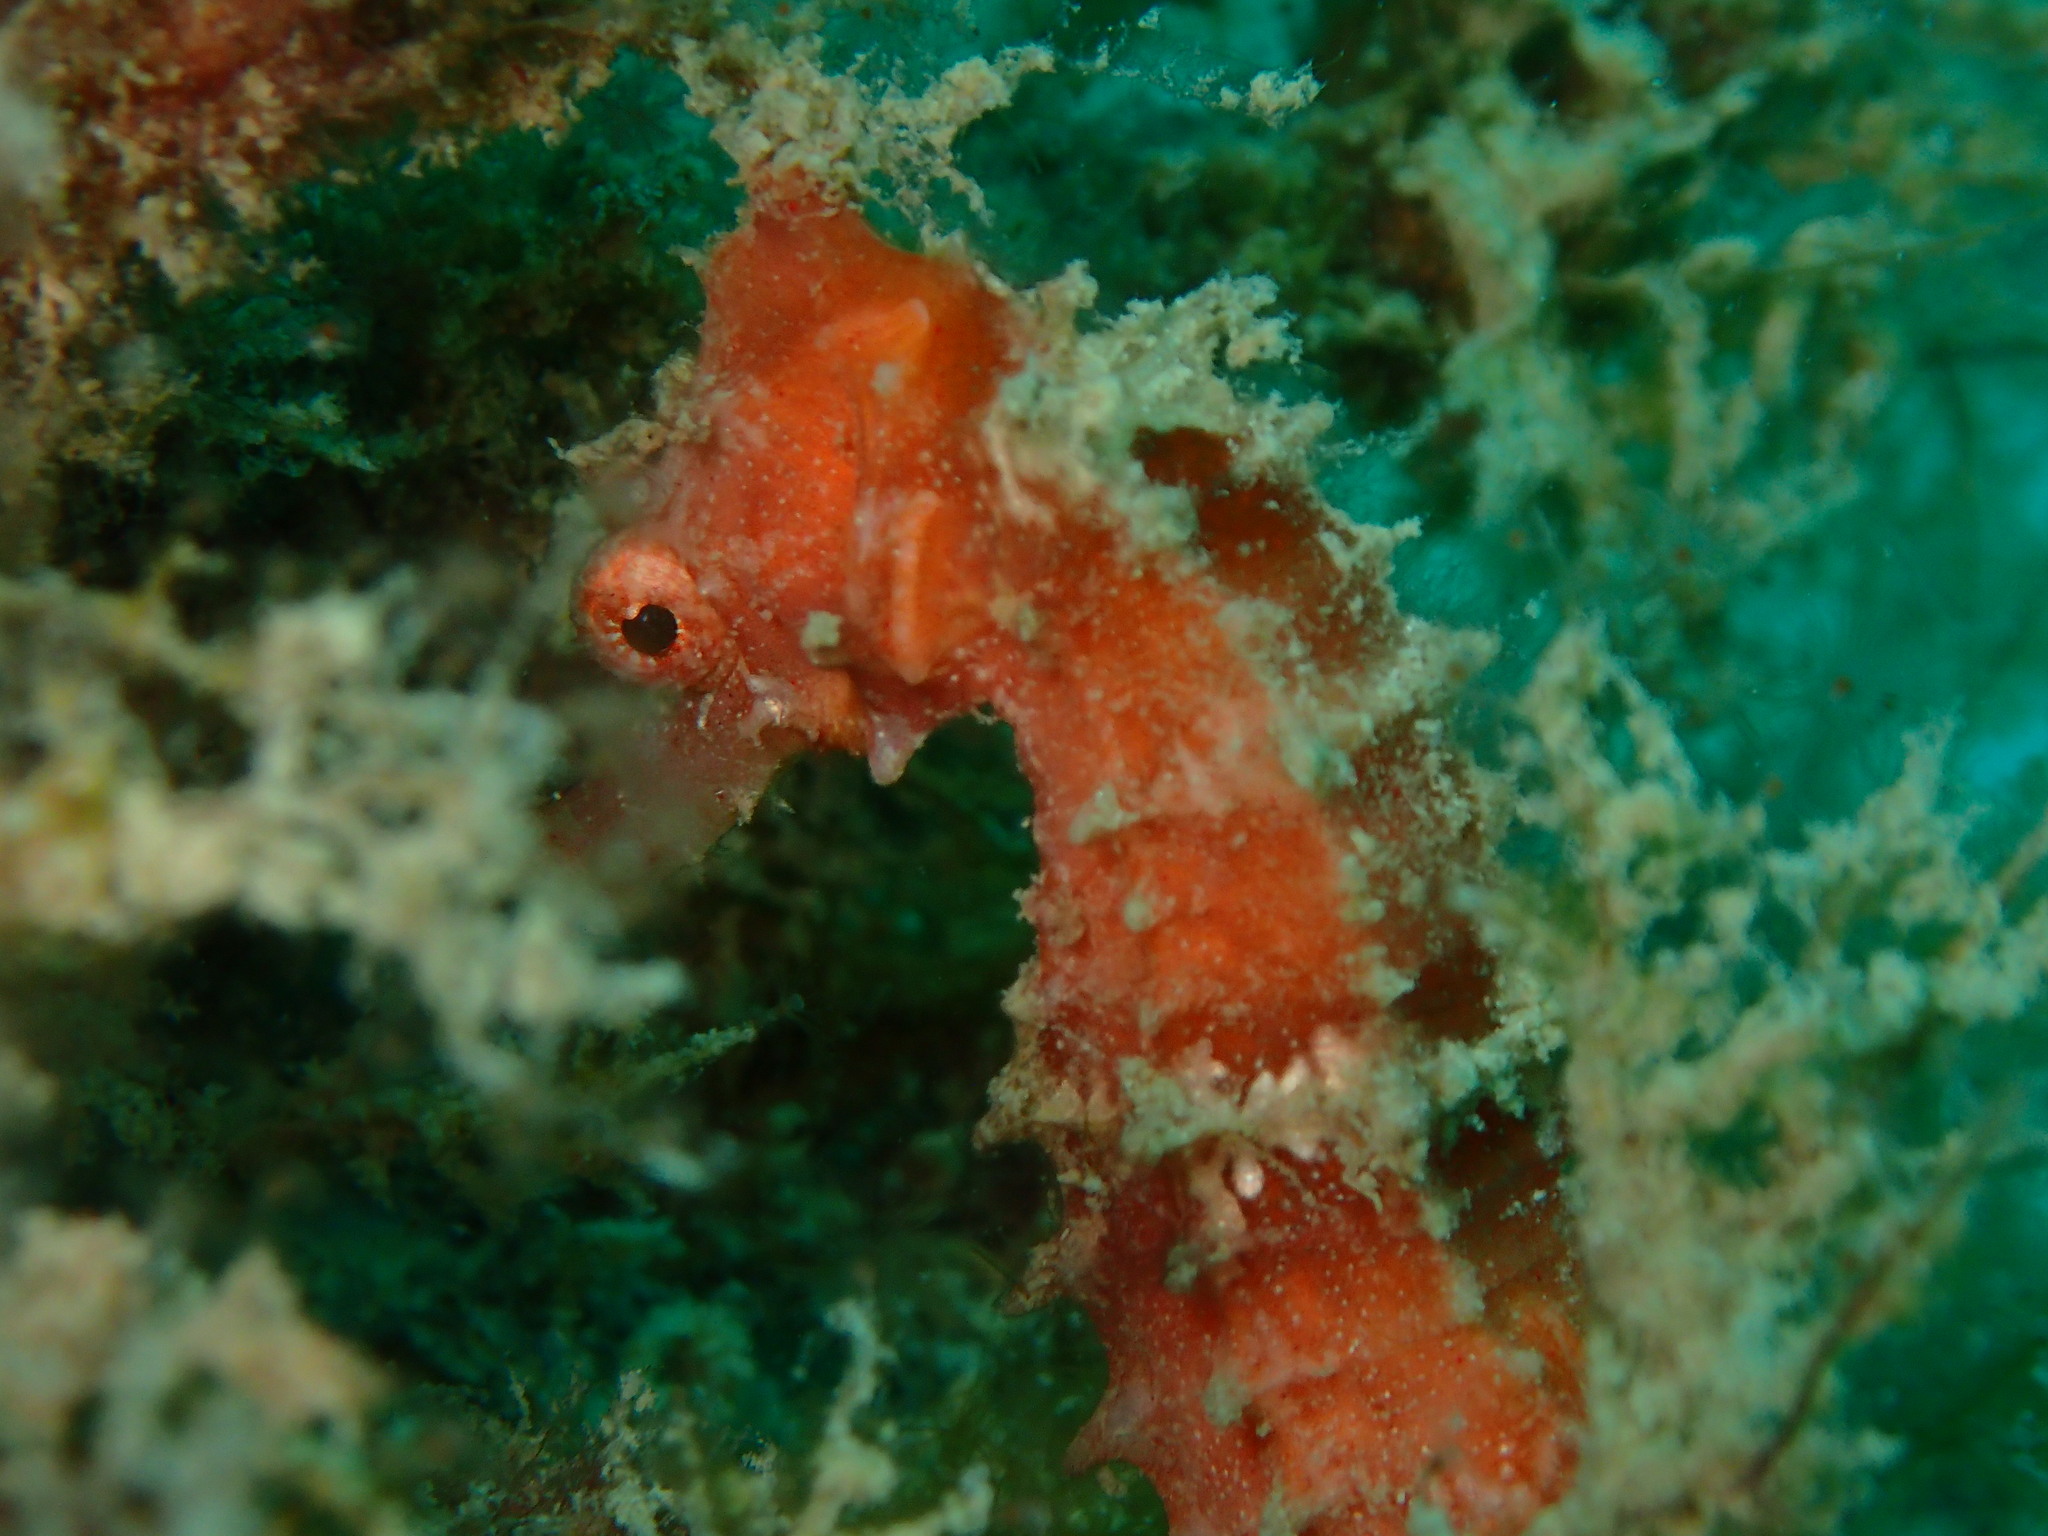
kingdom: Animalia
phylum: Chordata
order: Syngnathiformes
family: Syngnathidae
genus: Hippocampus
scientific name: Hippocampus spinosissimus
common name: Hedgehog seahorse
